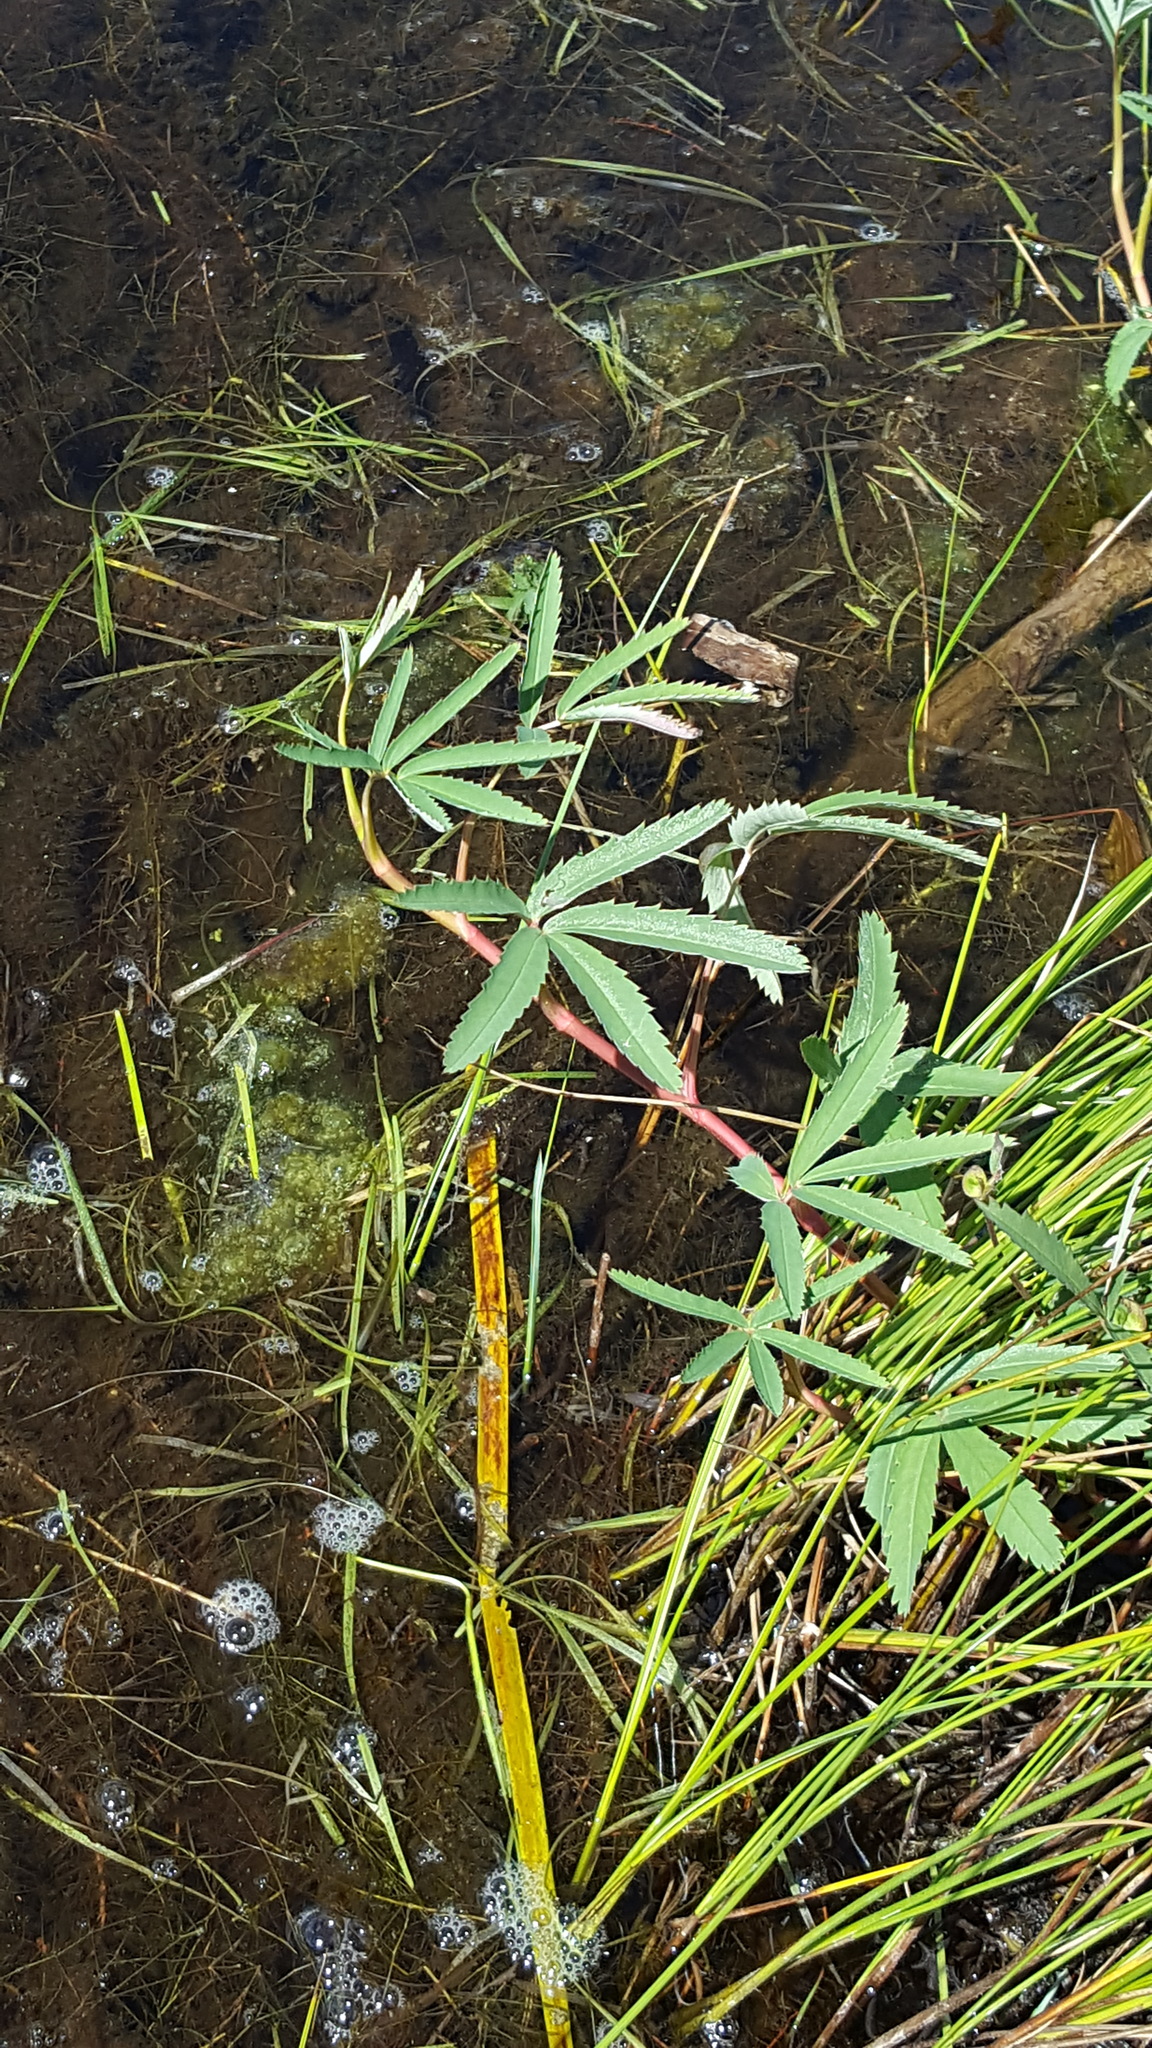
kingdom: Plantae
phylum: Tracheophyta
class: Magnoliopsida
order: Rosales
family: Rosaceae
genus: Comarum
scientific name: Comarum palustre
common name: Marsh cinquefoil
